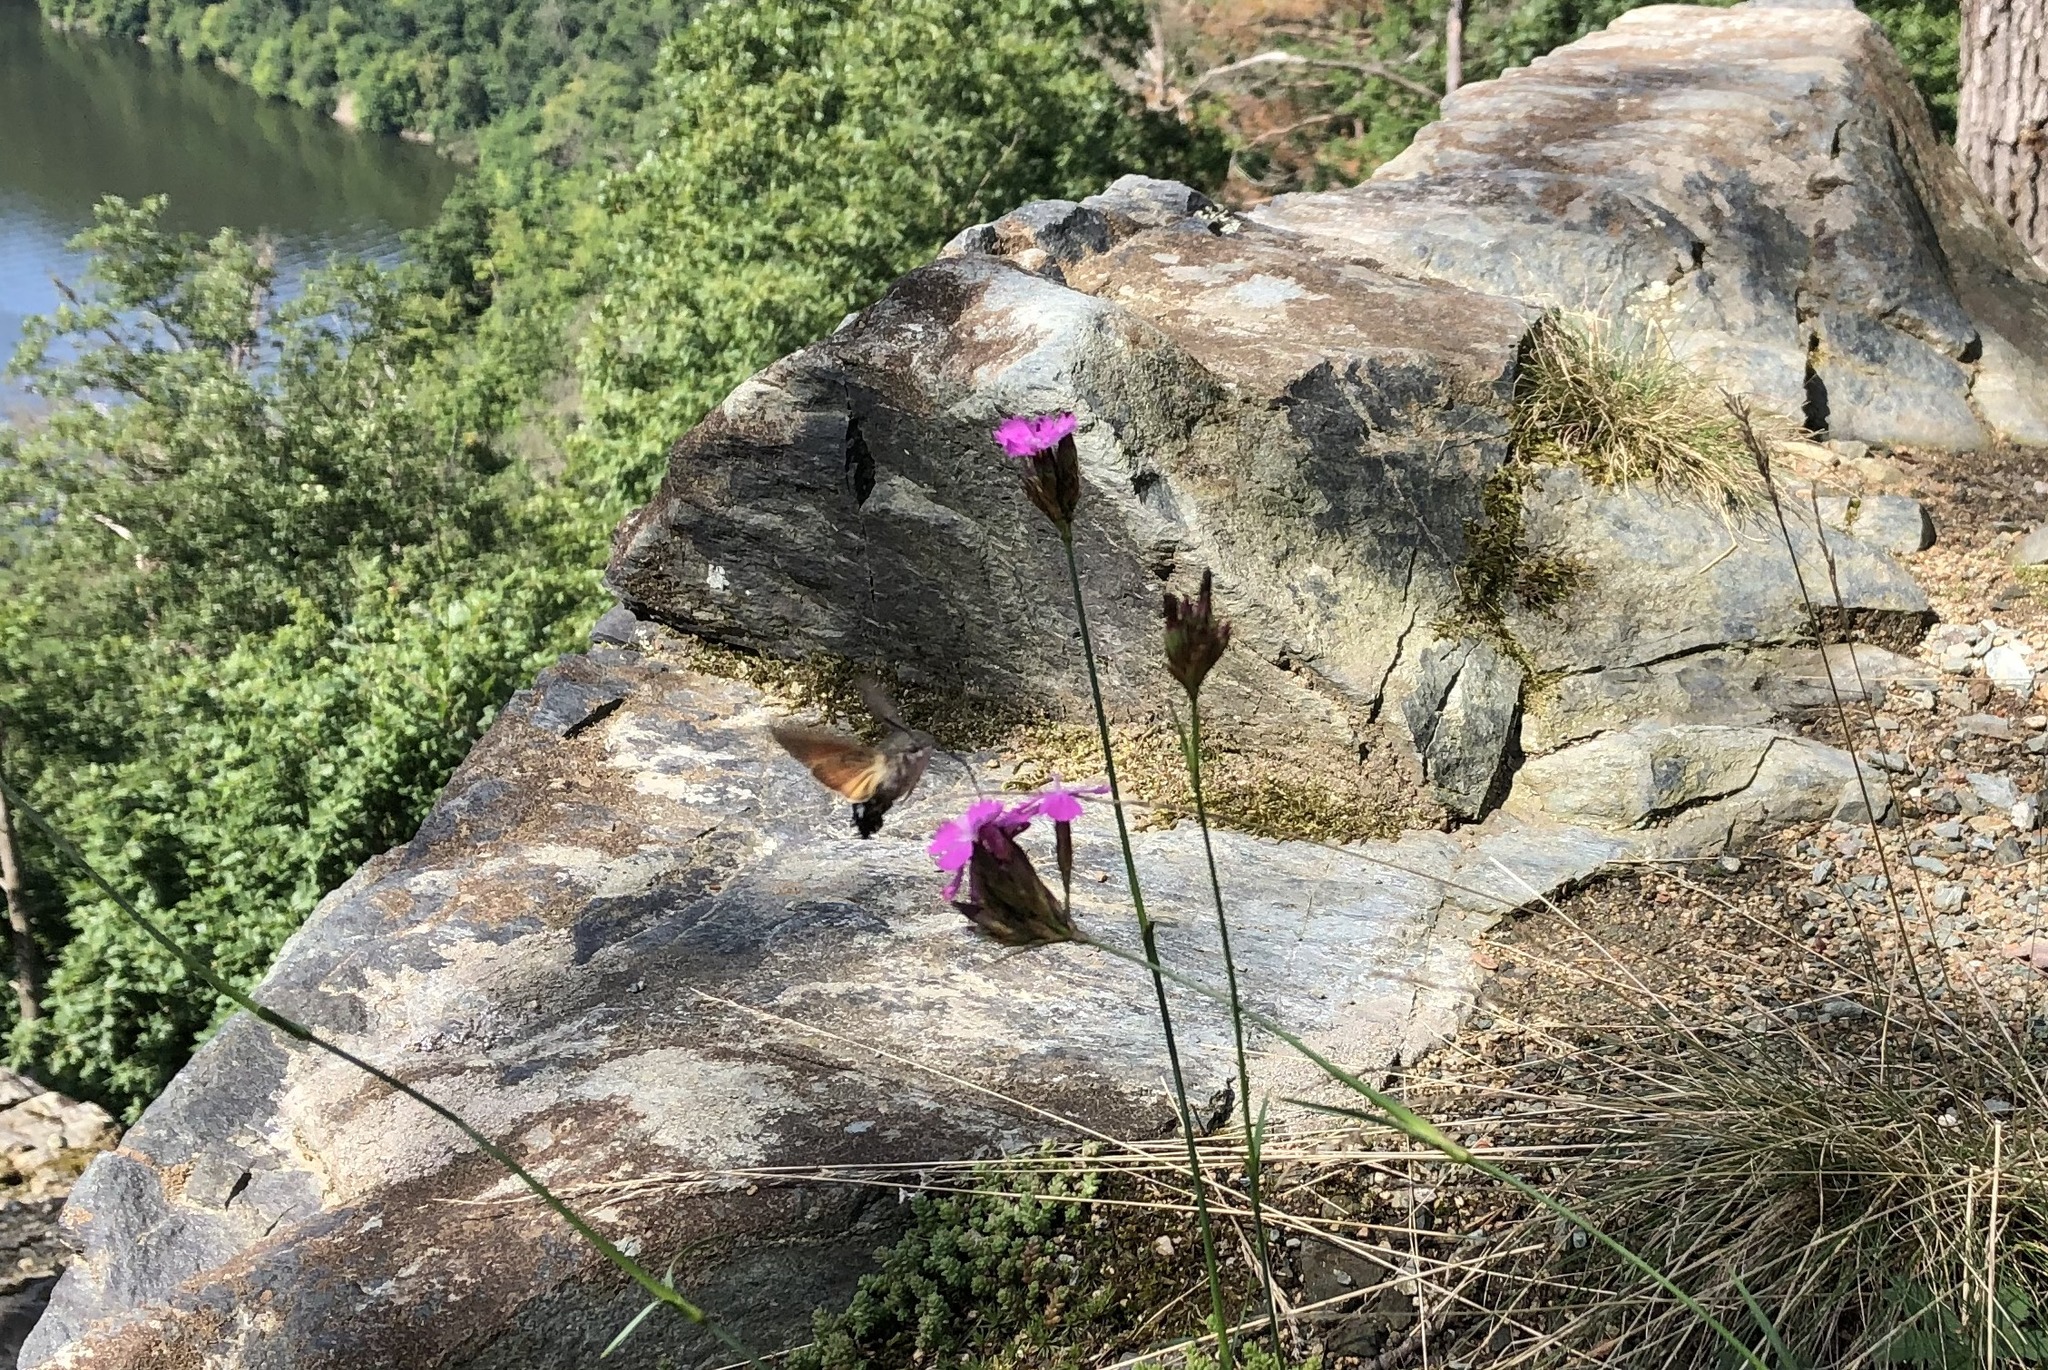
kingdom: Animalia
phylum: Arthropoda
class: Insecta
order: Lepidoptera
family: Sphingidae
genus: Macroglossum
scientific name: Macroglossum stellatarum
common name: Humming-bird hawk-moth
